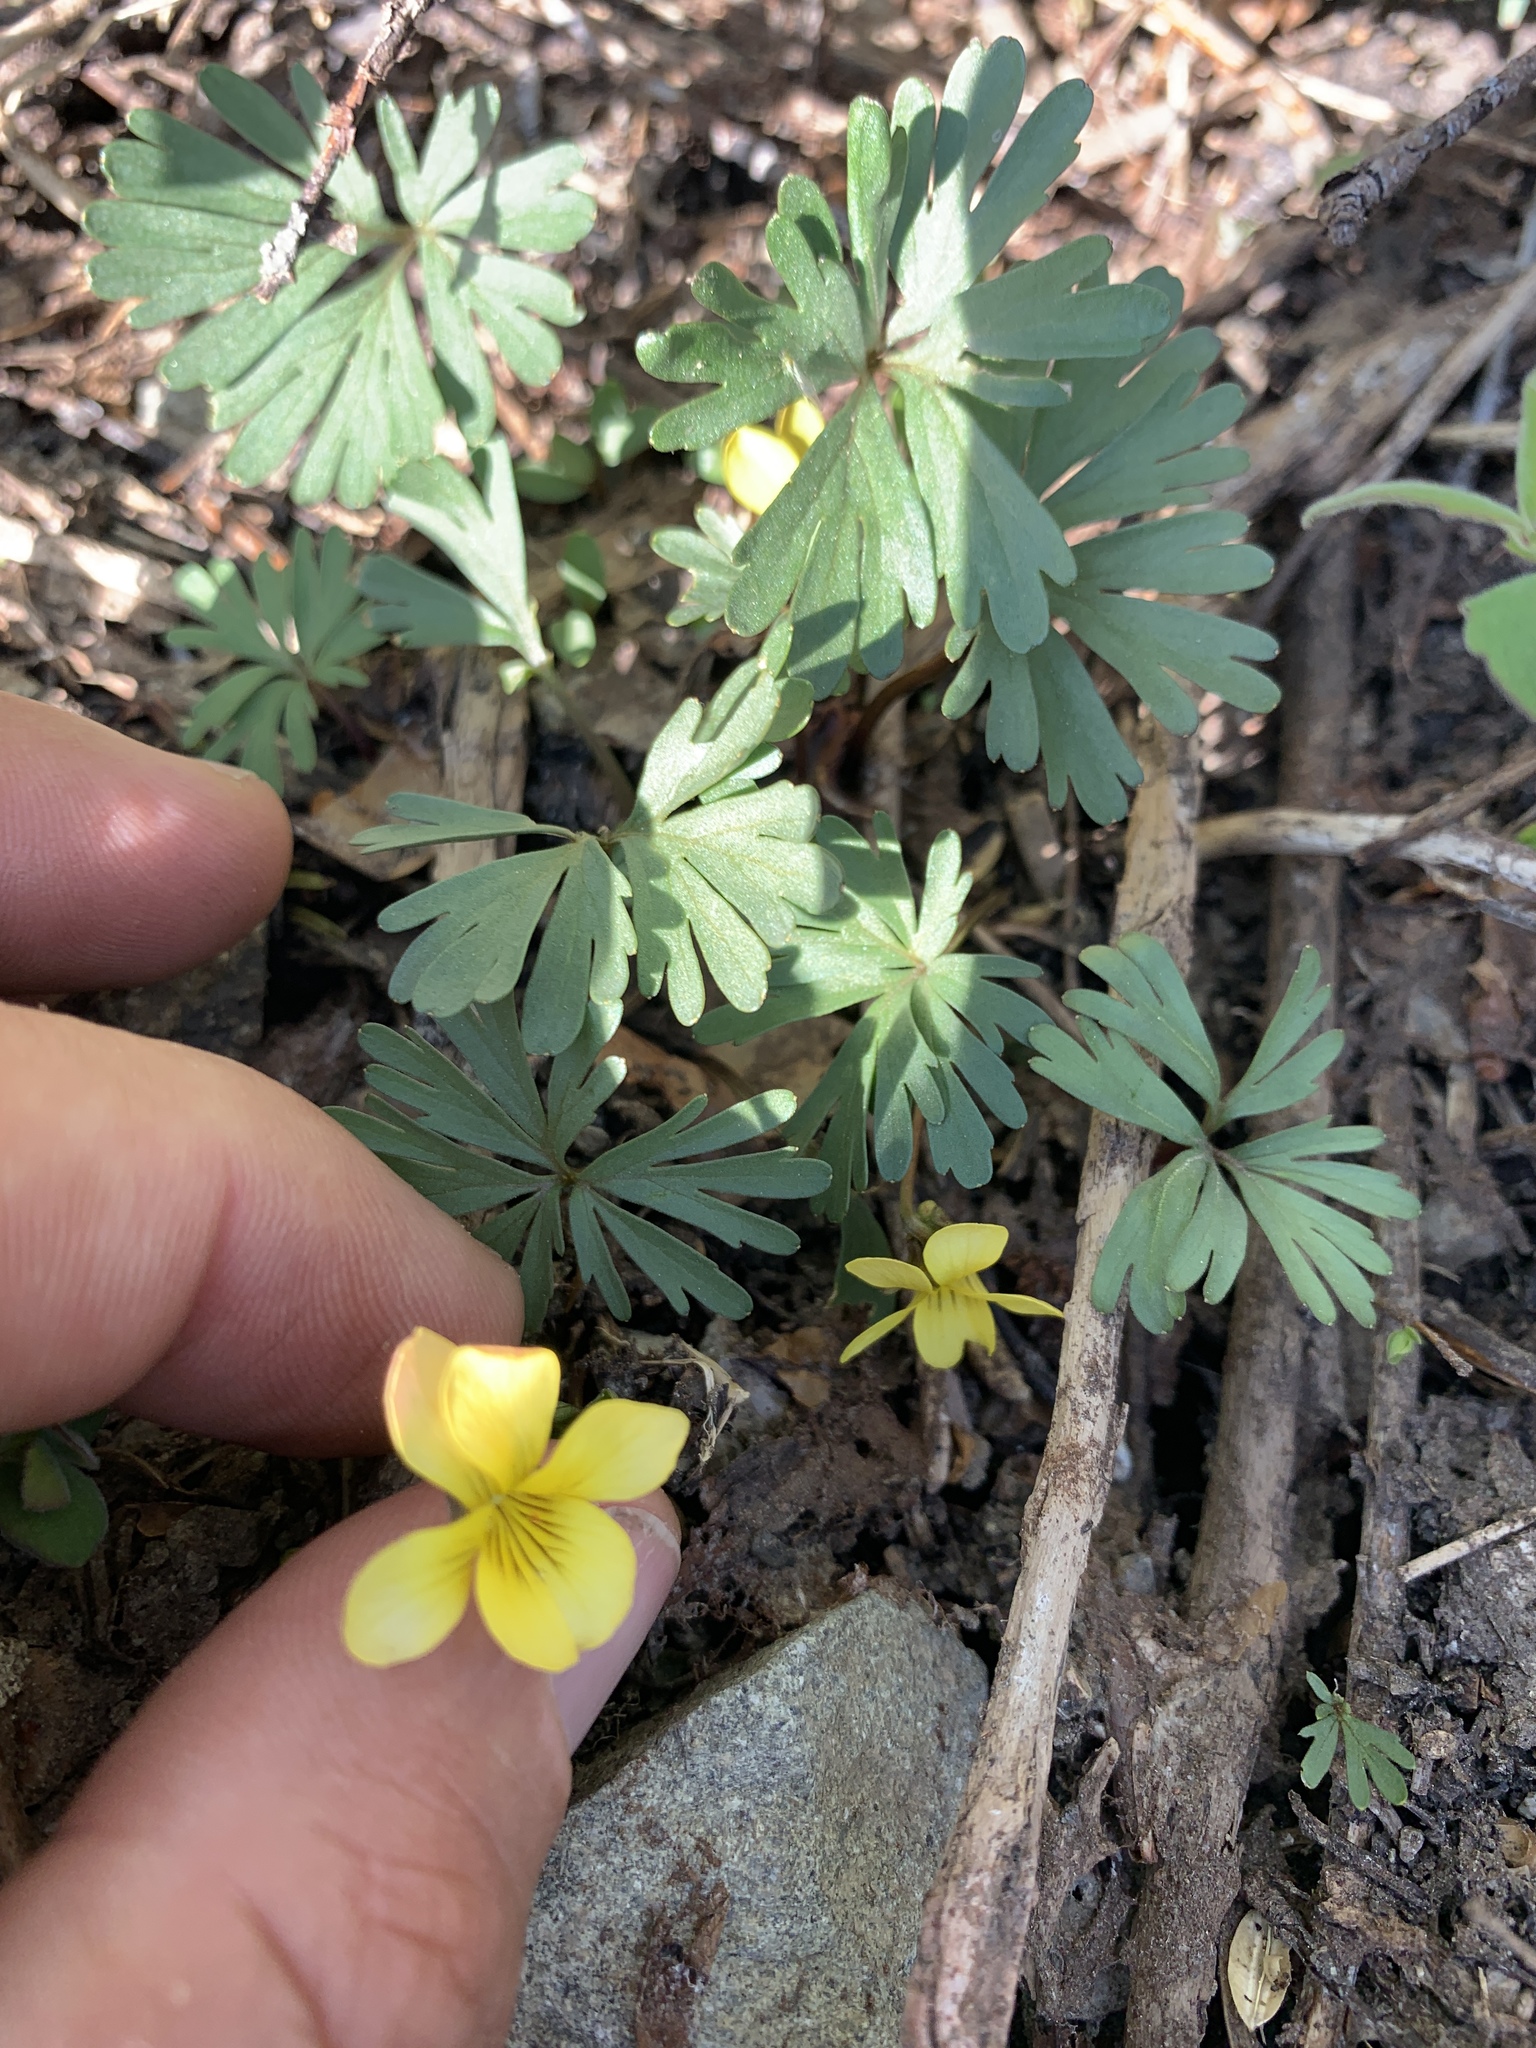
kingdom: Plantae
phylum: Tracheophyta
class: Magnoliopsida
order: Malpighiales
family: Violaceae
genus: Viola
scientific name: Viola sheltonii
